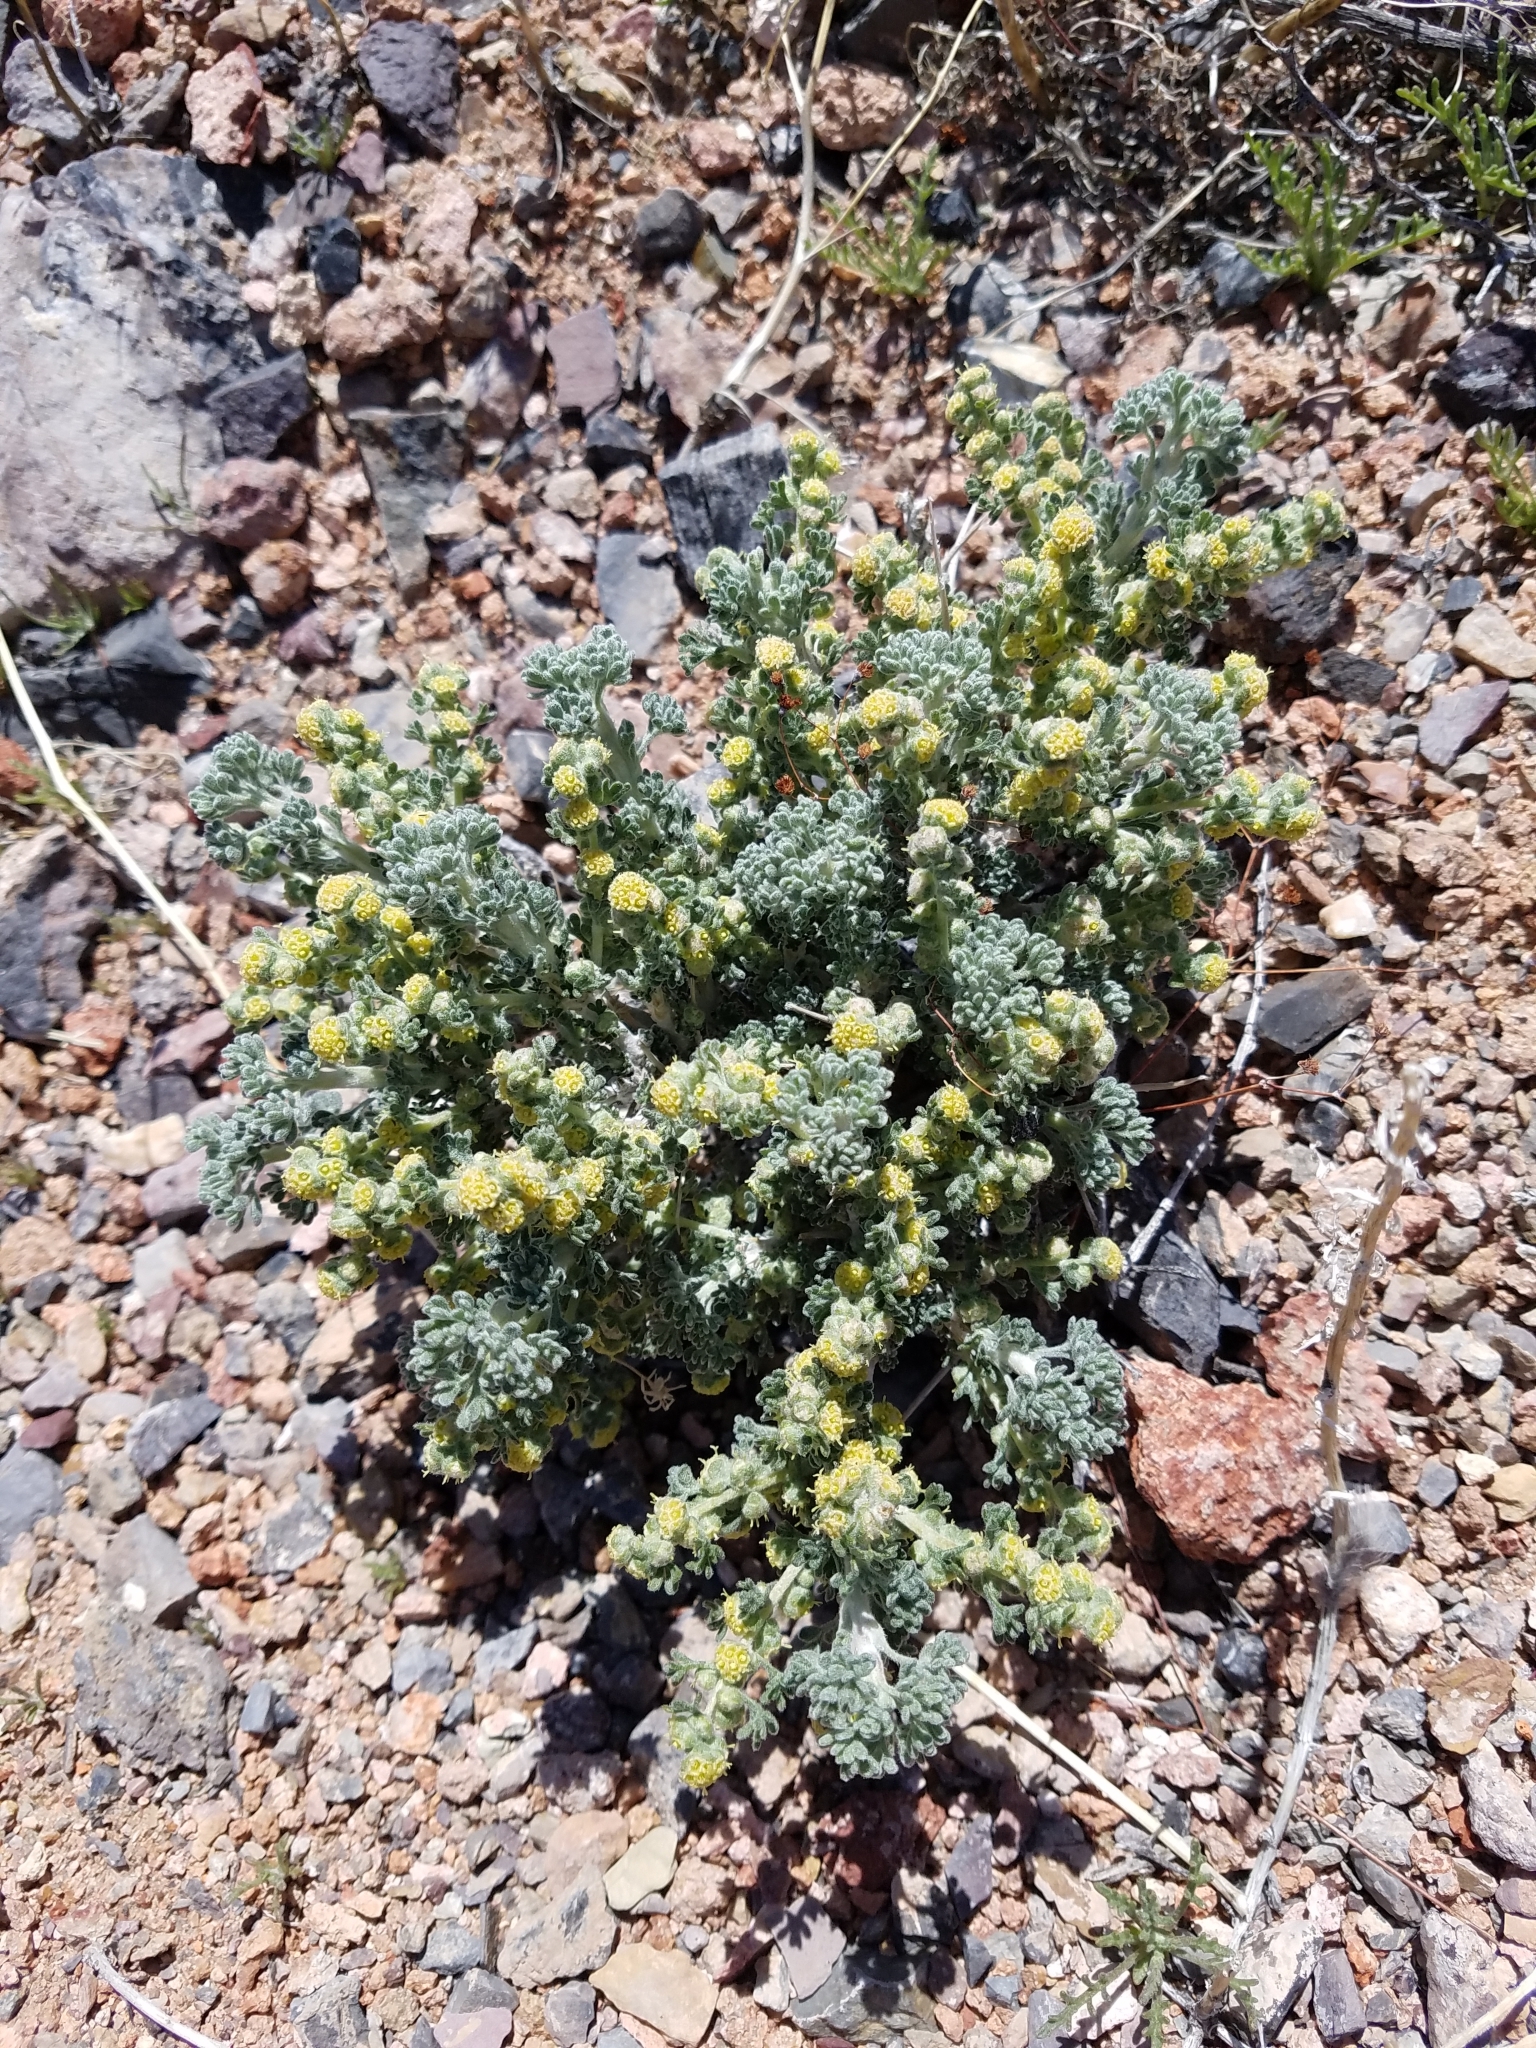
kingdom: Plantae
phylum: Tracheophyta
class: Magnoliopsida
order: Asterales
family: Asteraceae
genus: Artemisia
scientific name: Artemisia spinescens
